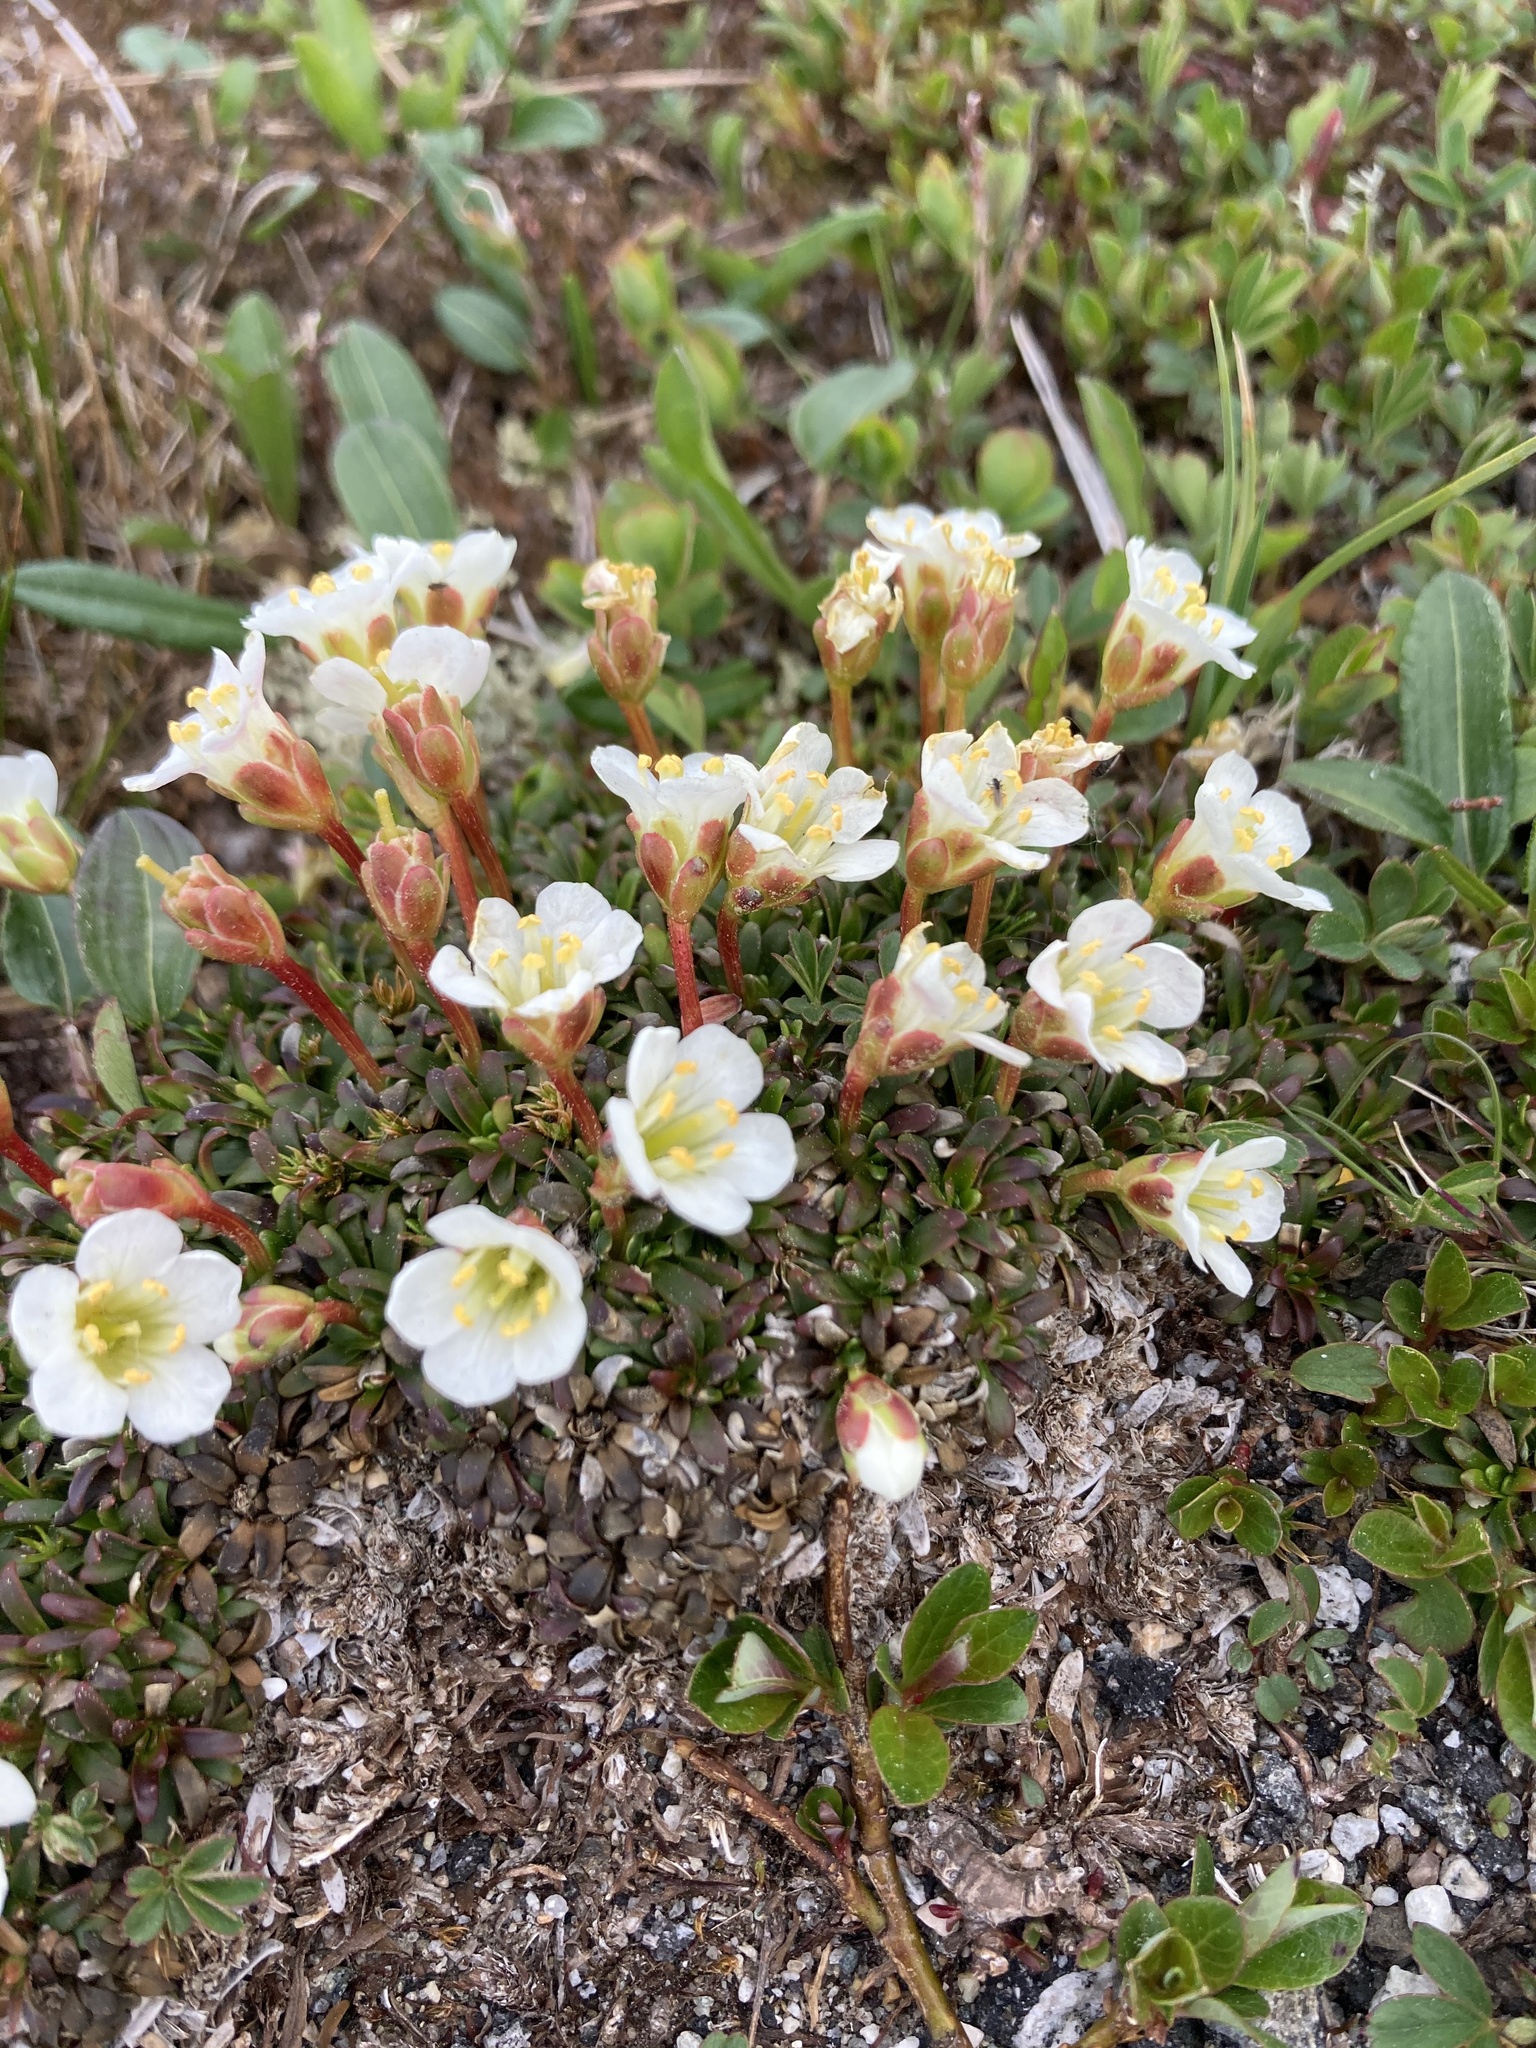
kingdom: Plantae
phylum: Tracheophyta
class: Magnoliopsida
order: Ericales
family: Diapensiaceae
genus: Diapensia
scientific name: Diapensia lapponica
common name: Diapensia
